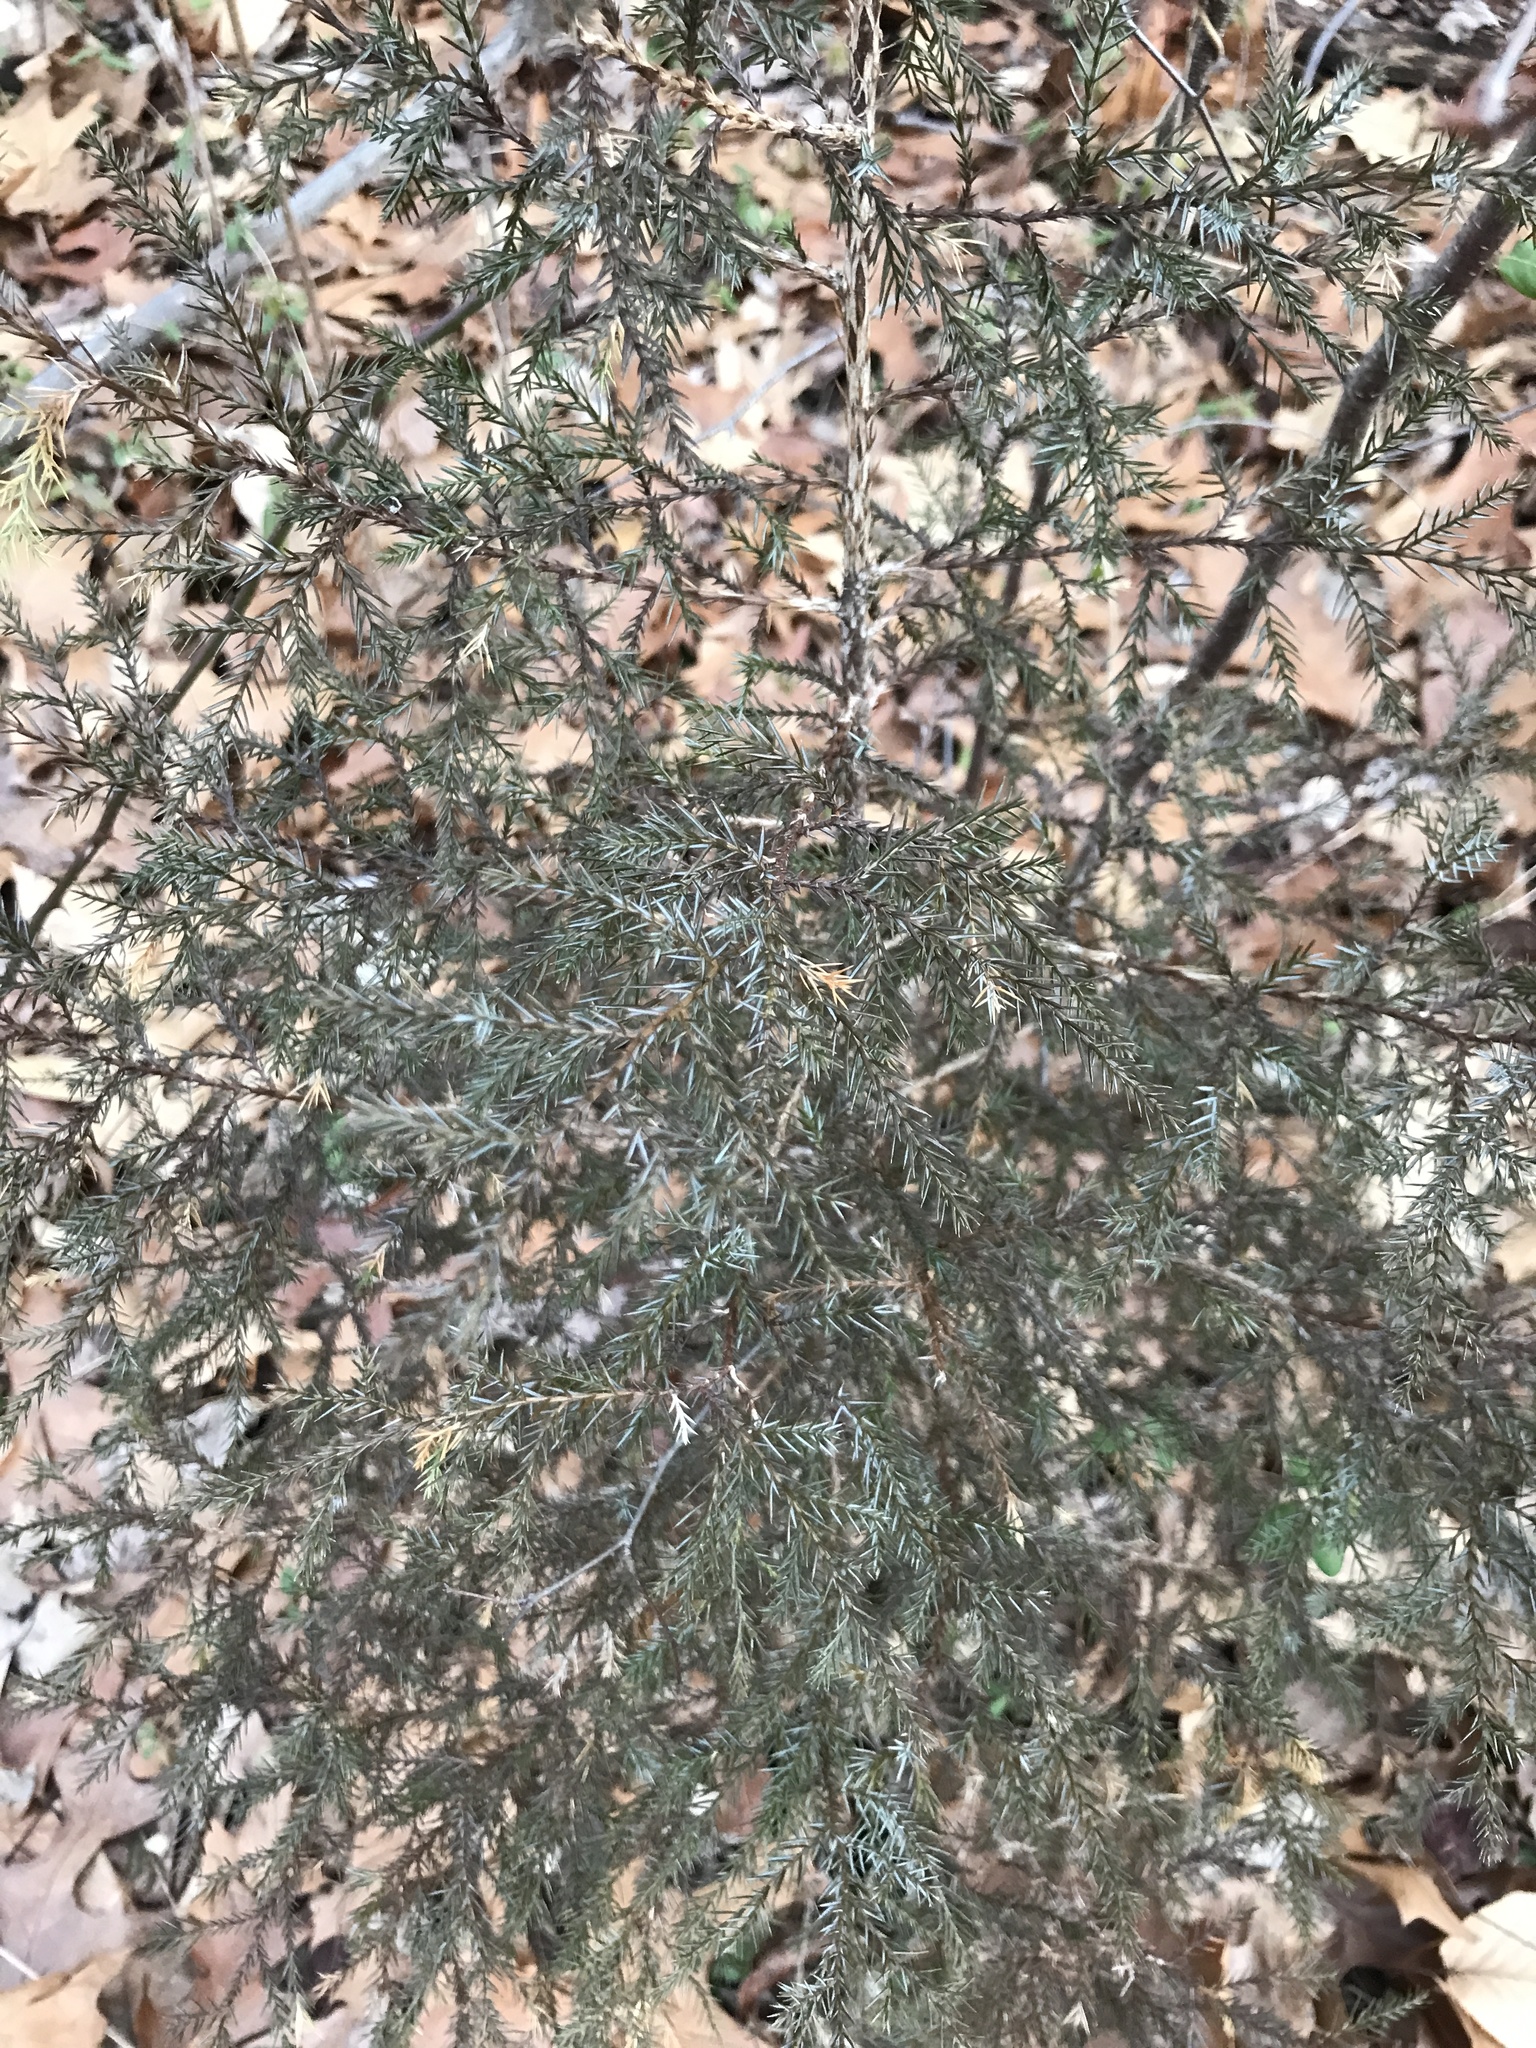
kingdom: Plantae
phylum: Tracheophyta
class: Pinopsida
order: Pinales
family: Cupressaceae
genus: Juniperus
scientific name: Juniperus virginiana
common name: Red juniper
